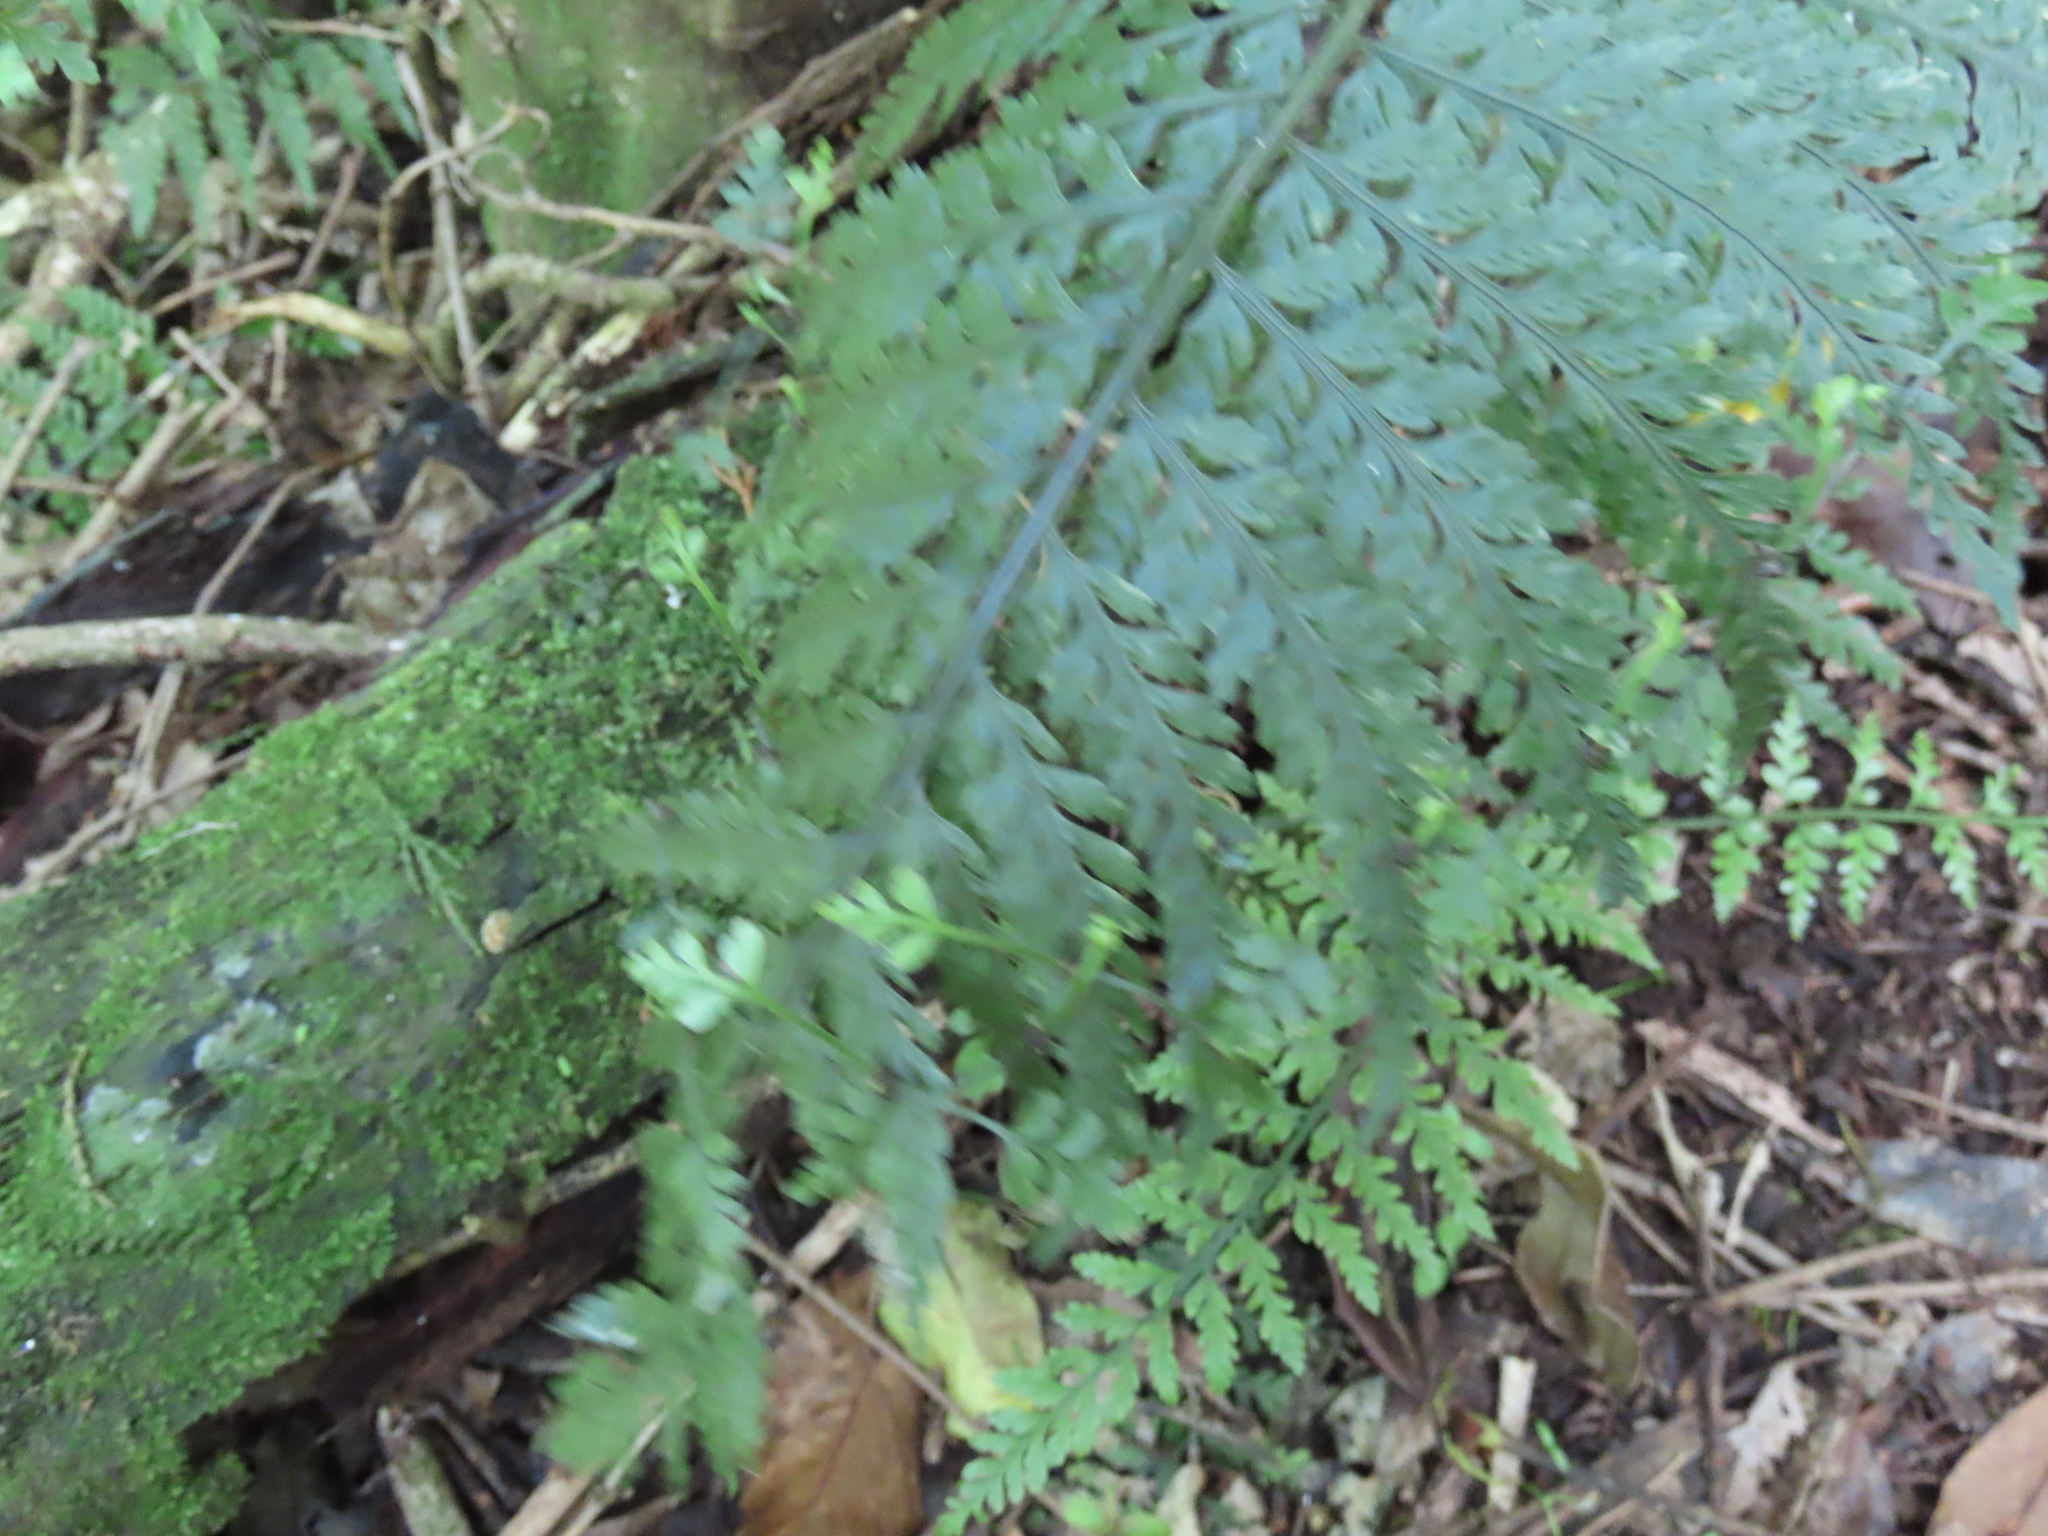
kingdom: Plantae
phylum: Tracheophyta
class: Polypodiopsida
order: Polypodiales
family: Aspleniaceae
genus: Asplenium
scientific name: Asplenium bulbiferum
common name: Mother fern
